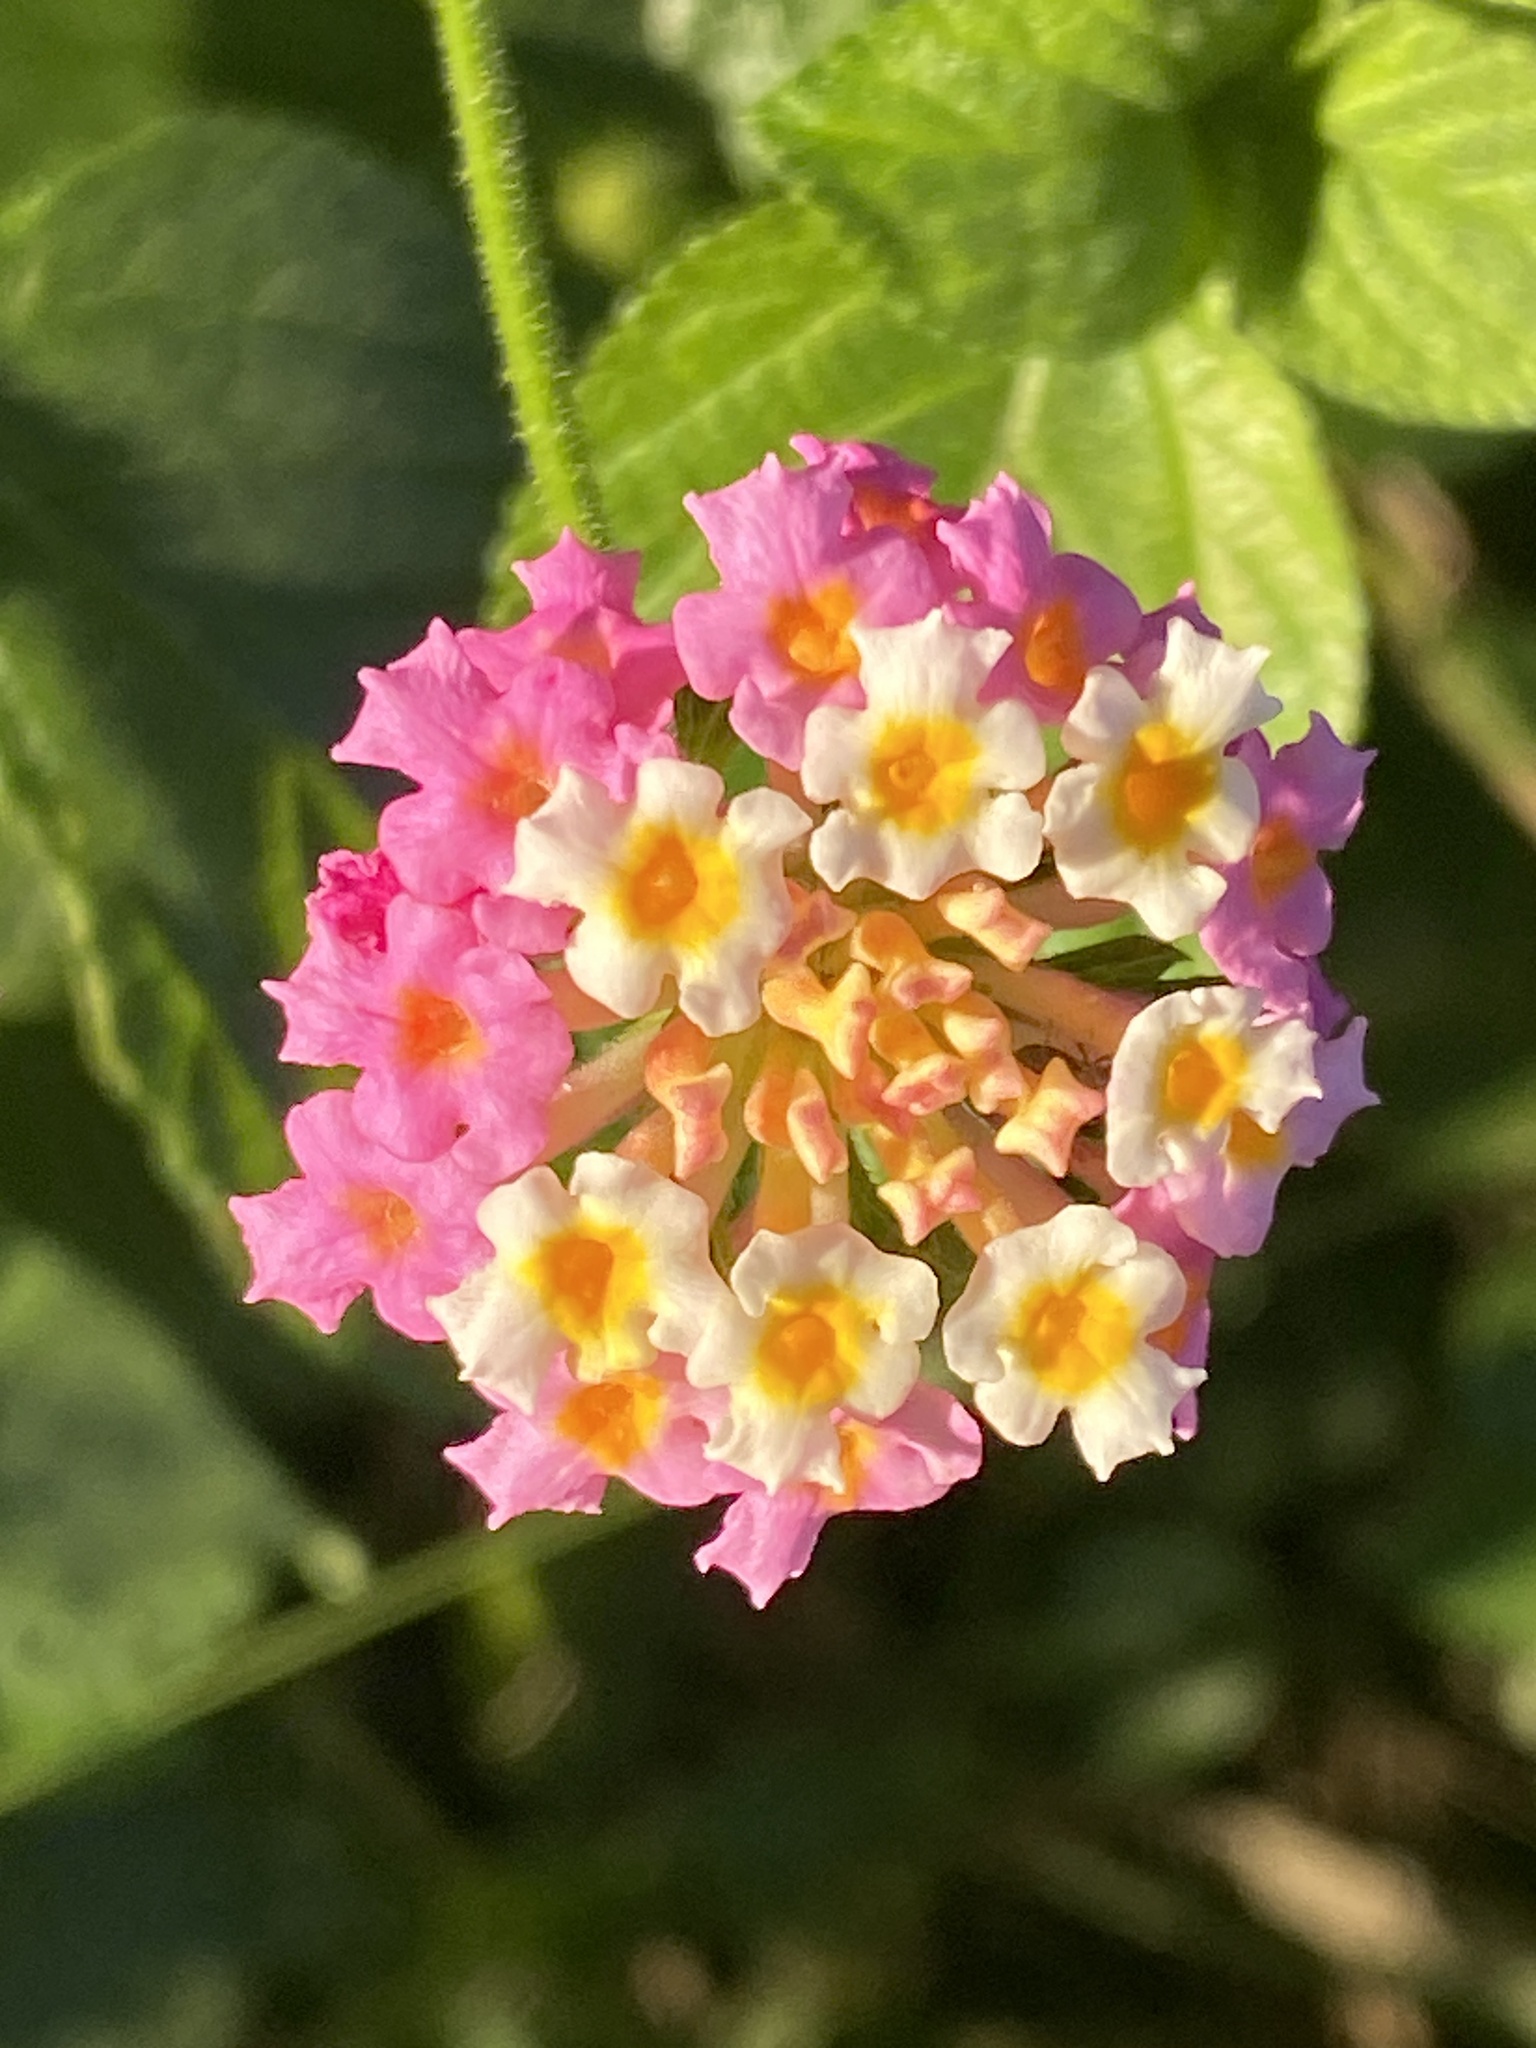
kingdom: Plantae
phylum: Tracheophyta
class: Magnoliopsida
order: Lamiales
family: Verbenaceae
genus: Lantana
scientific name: Lantana camara
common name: Lantana
